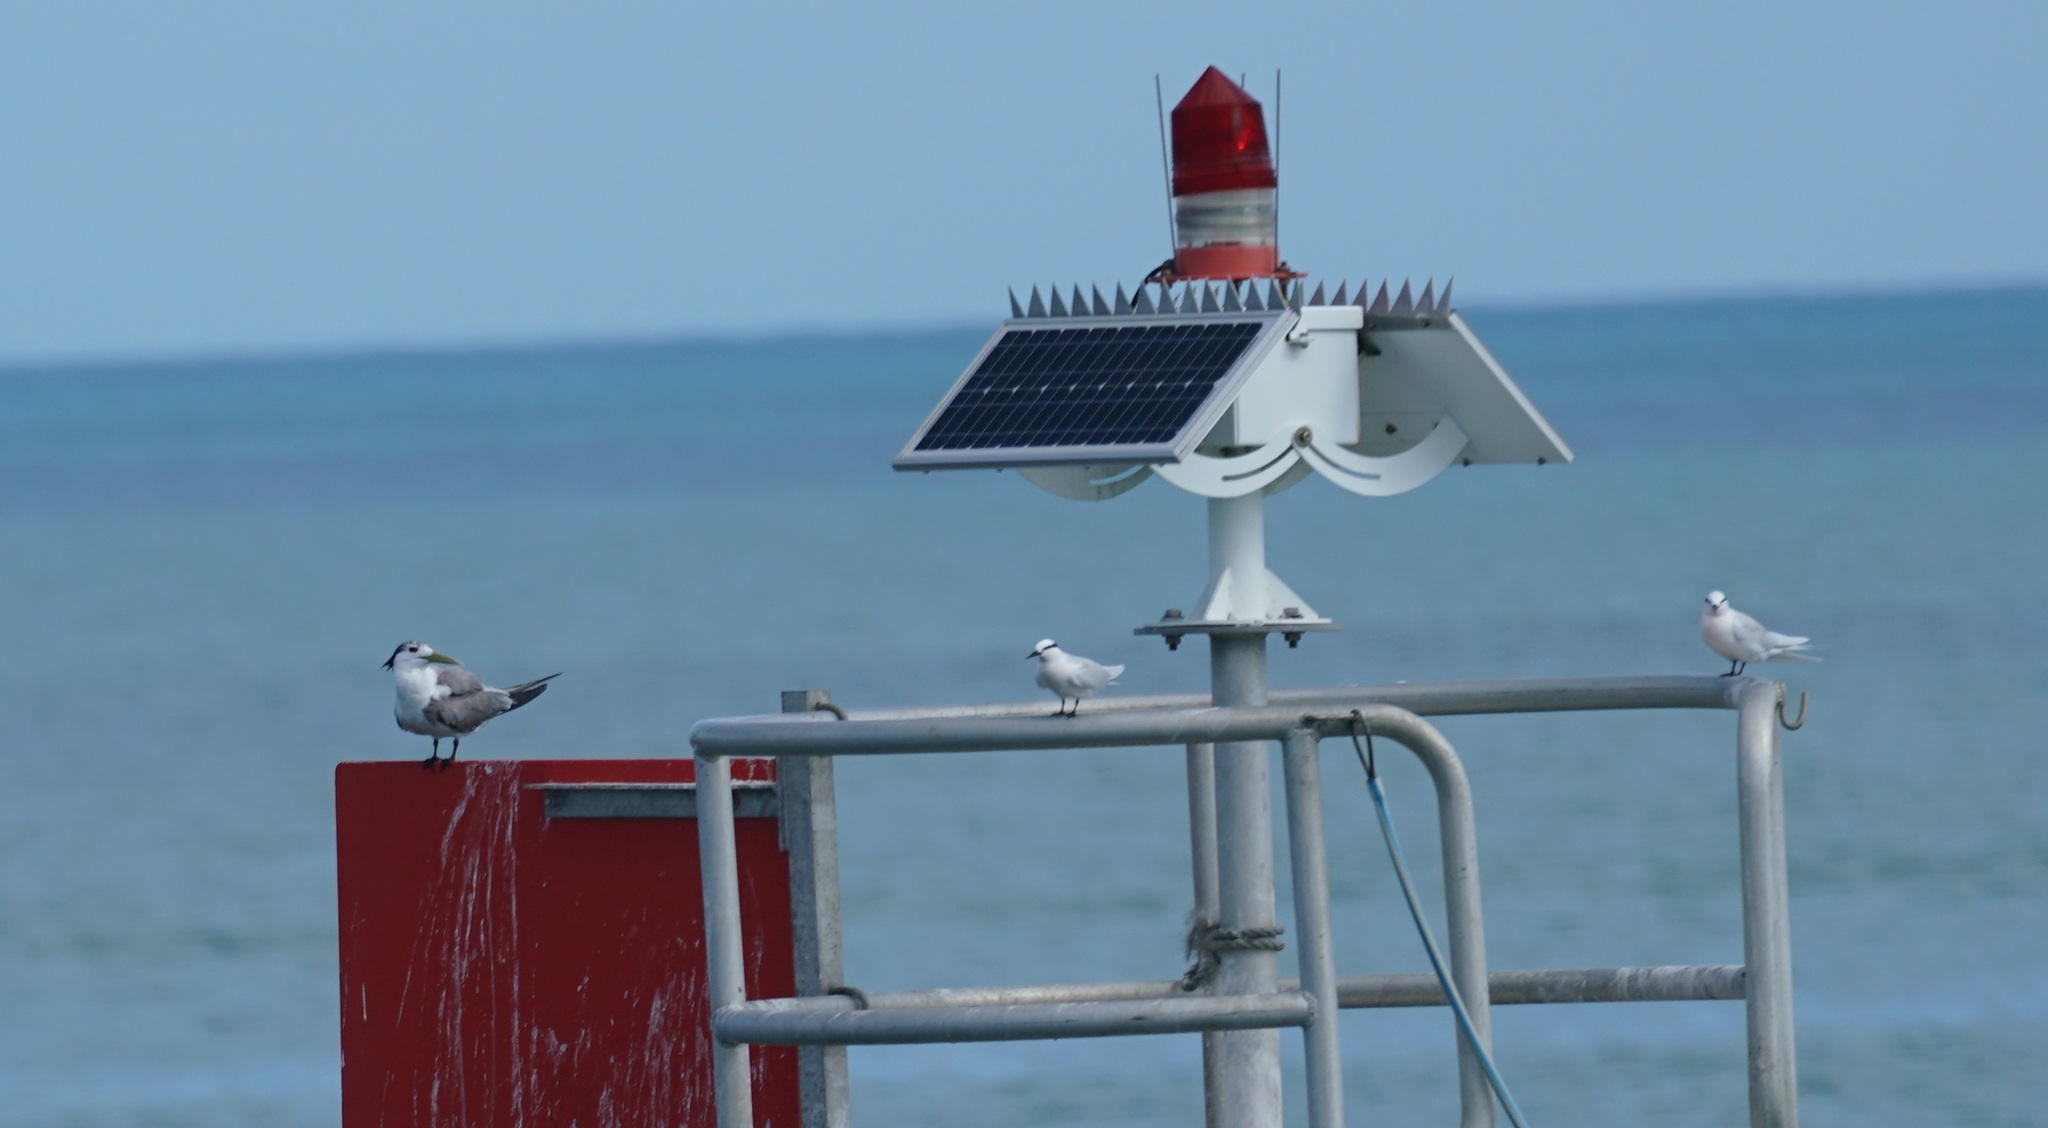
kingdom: Animalia
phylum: Chordata
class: Aves
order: Charadriiformes
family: Laridae
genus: Thalasseus
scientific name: Thalasseus bergii
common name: Greater crested tern
